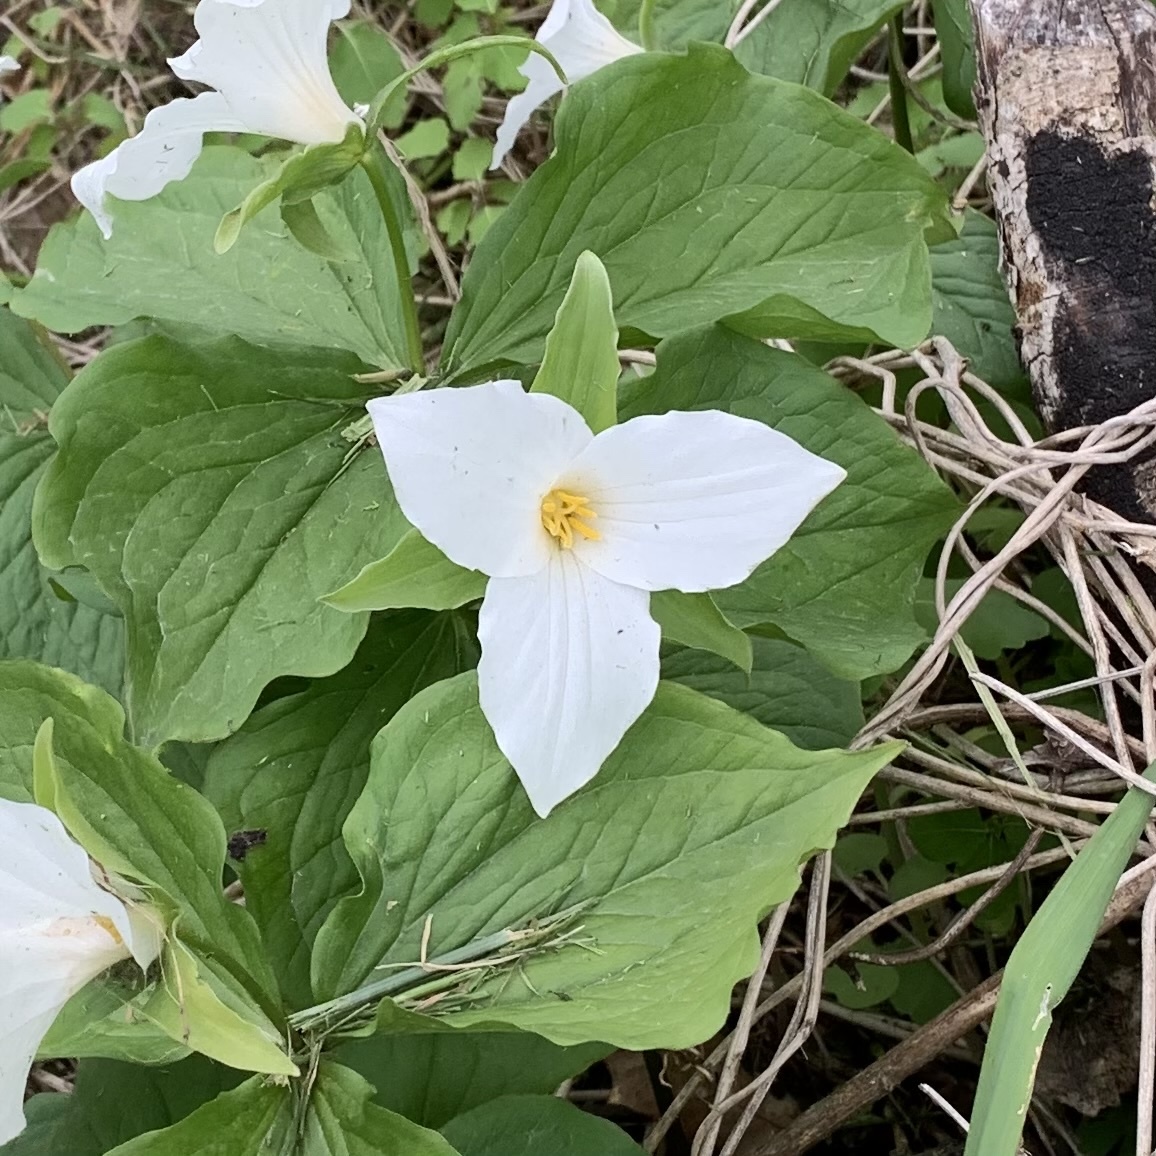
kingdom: Plantae
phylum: Tracheophyta
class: Liliopsida
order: Liliales
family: Melanthiaceae
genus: Trillium
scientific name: Trillium grandiflorum
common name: Great white trillium
